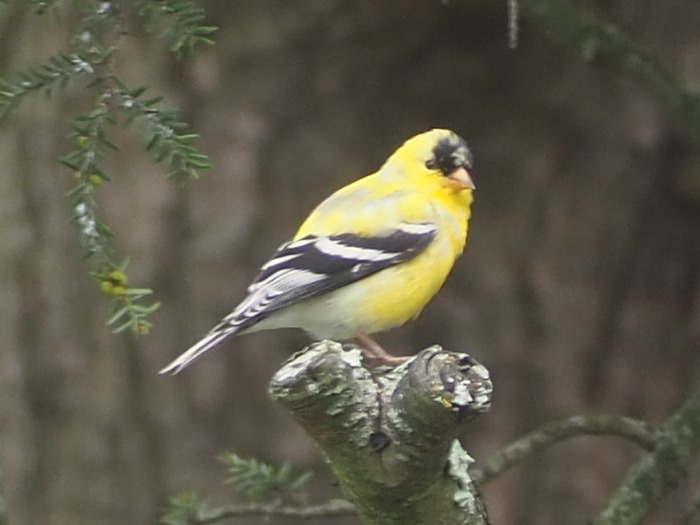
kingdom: Animalia
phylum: Chordata
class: Aves
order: Passeriformes
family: Fringillidae
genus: Spinus
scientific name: Spinus tristis
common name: American goldfinch
